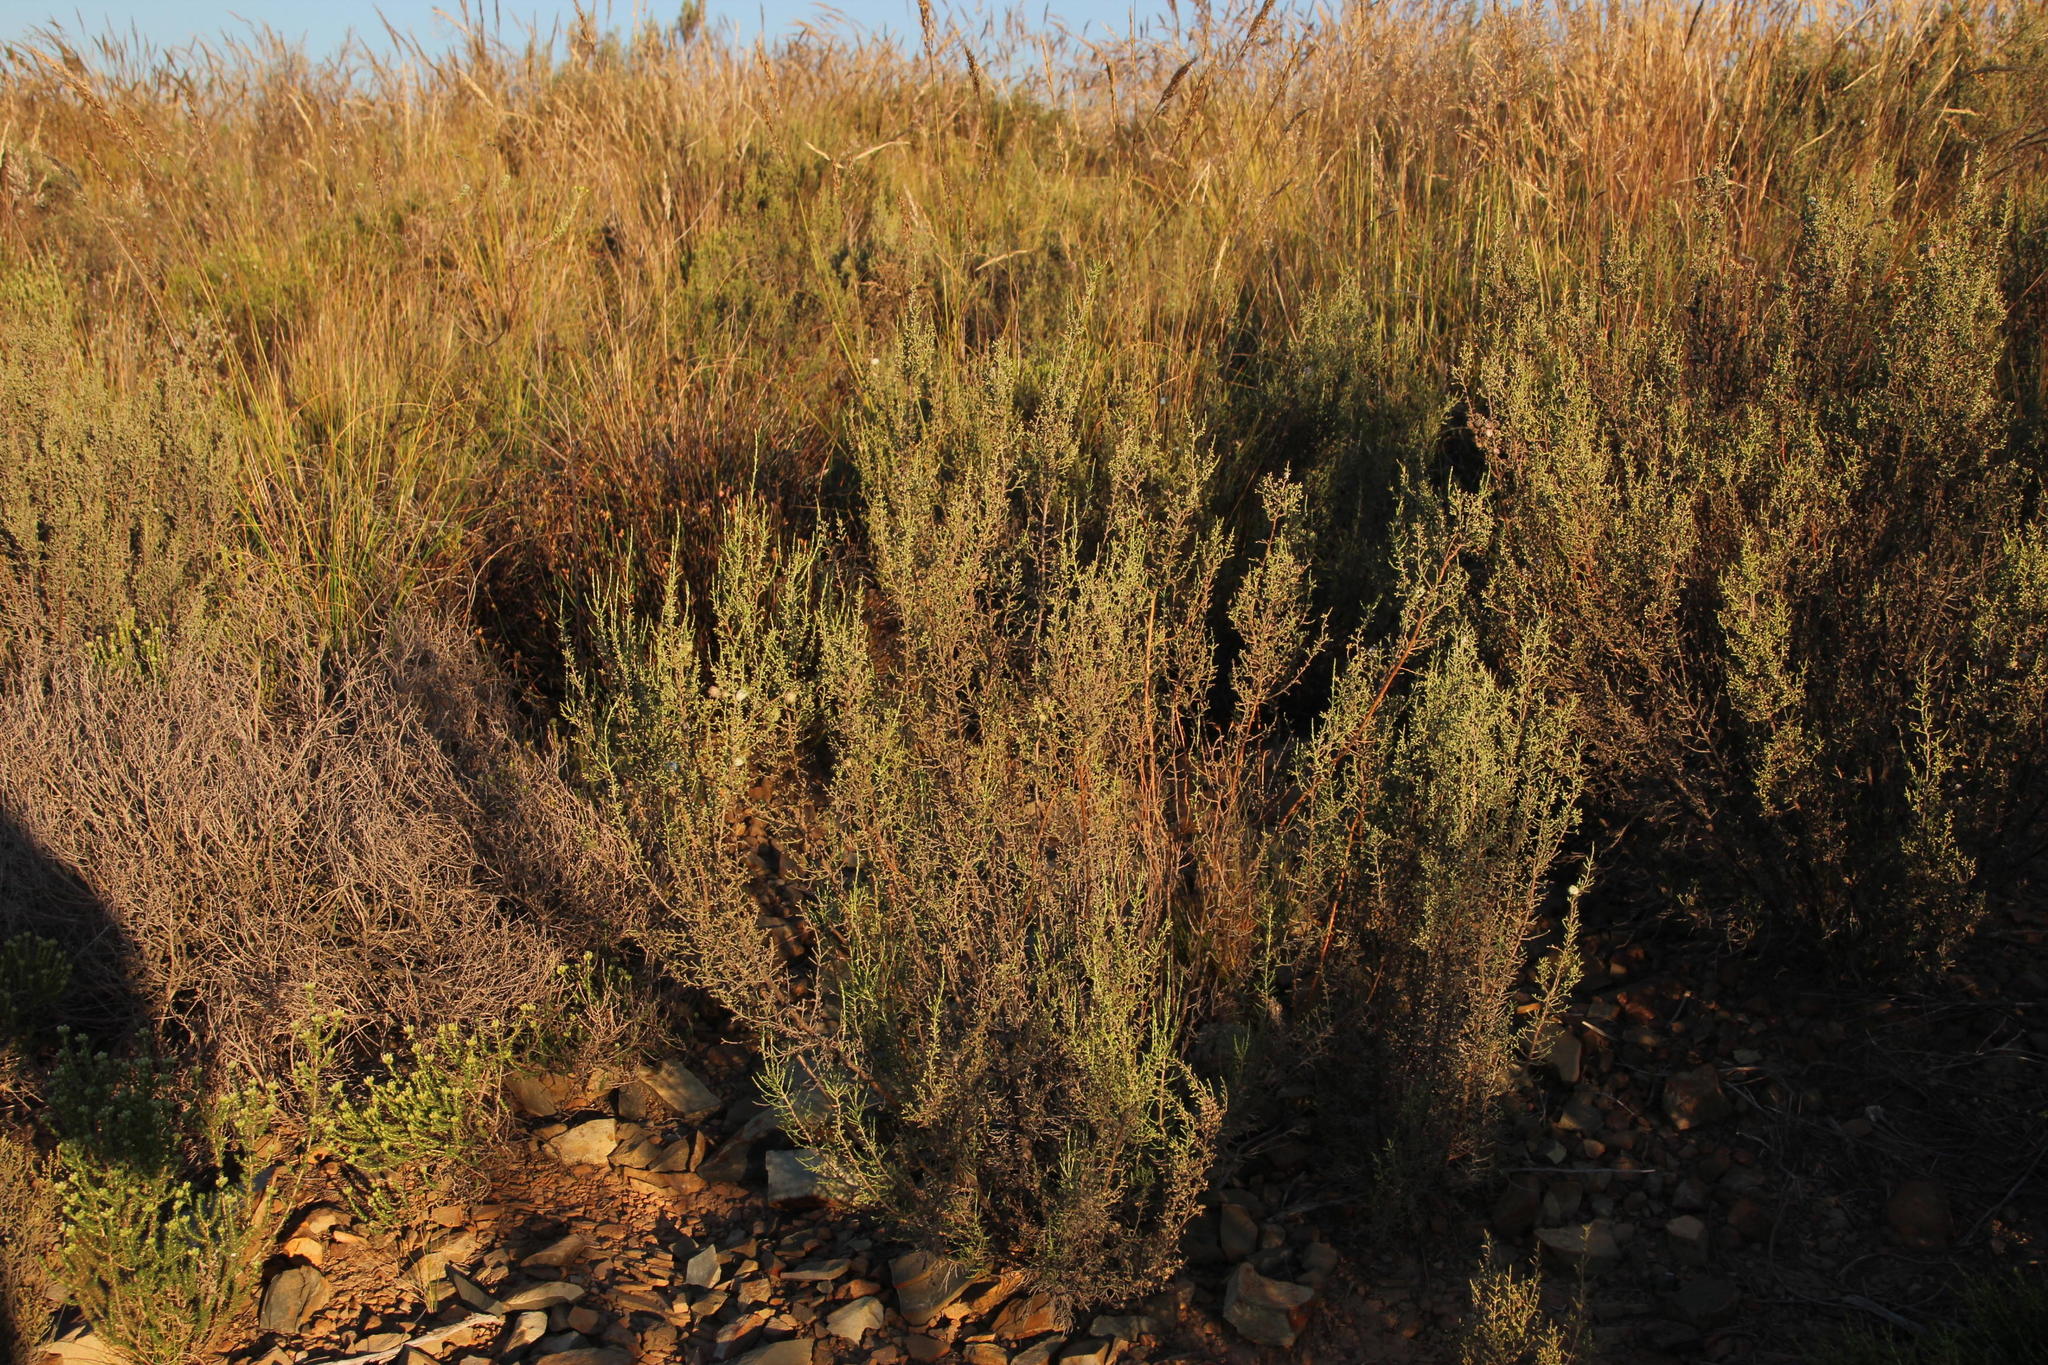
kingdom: Plantae
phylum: Tracheophyta
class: Magnoliopsida
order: Asterales
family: Asteraceae
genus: Dicerothamnus
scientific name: Dicerothamnus rhinocerotis
